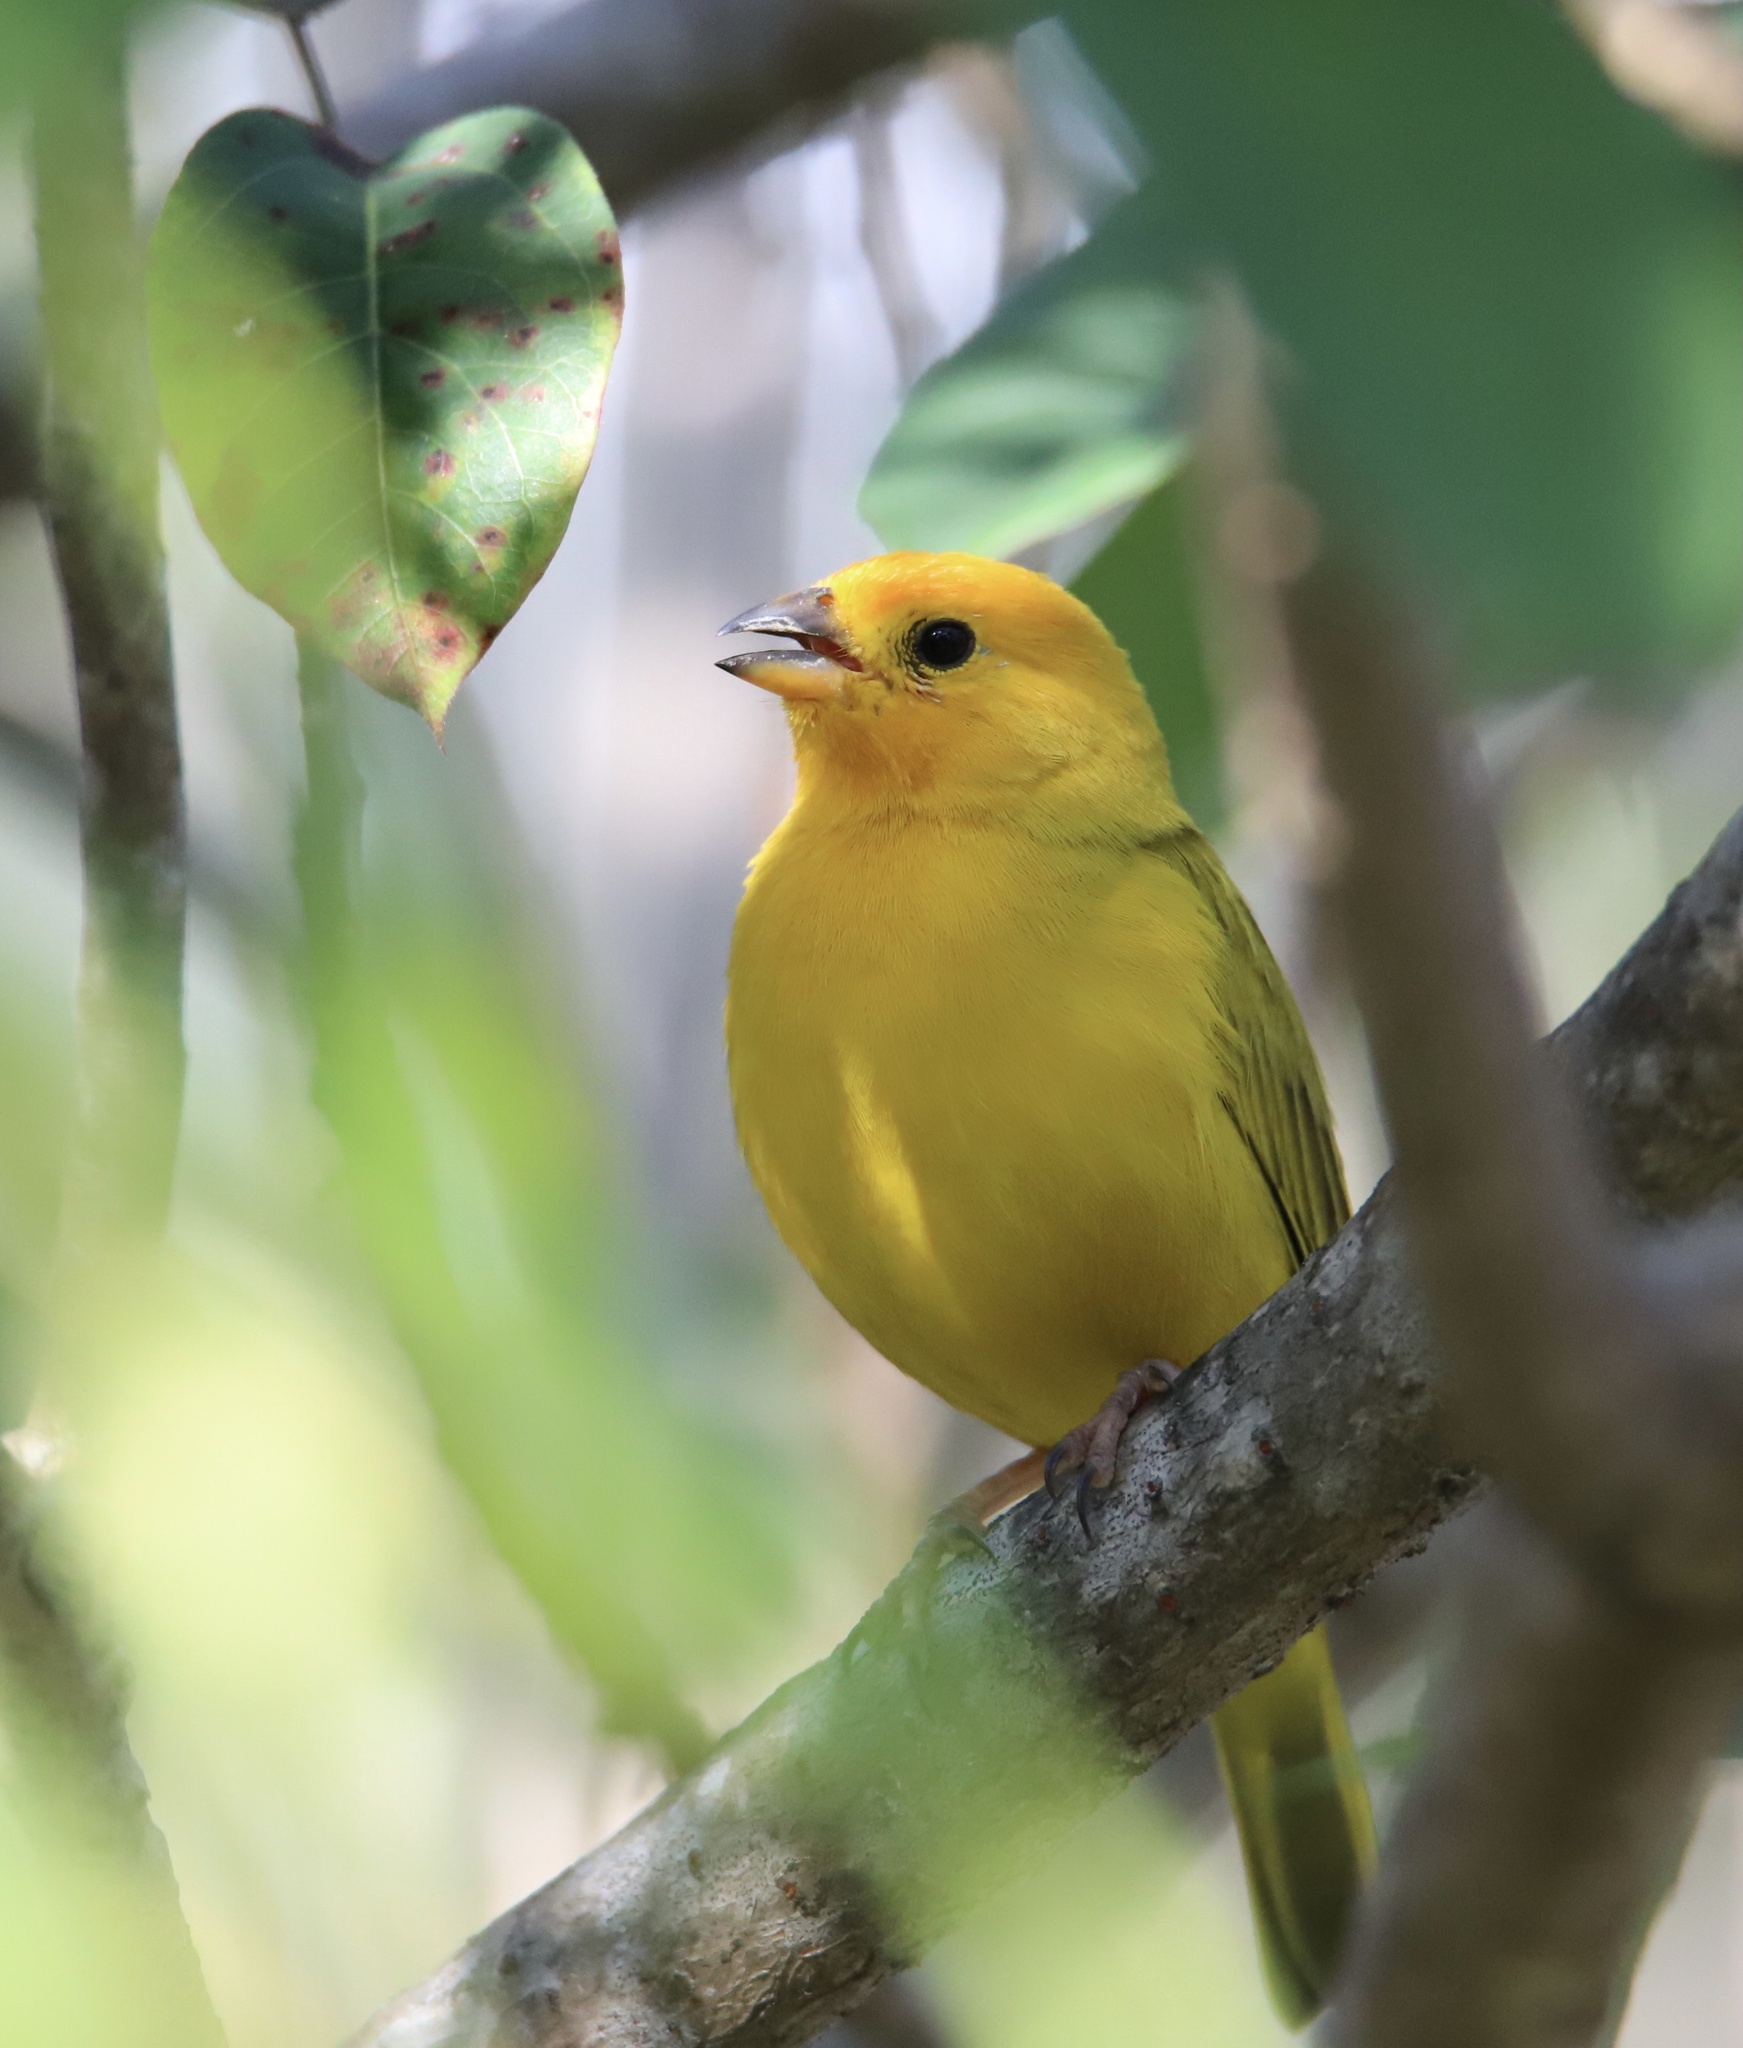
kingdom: Animalia
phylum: Chordata
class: Aves
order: Passeriformes
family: Thraupidae
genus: Sicalis
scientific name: Sicalis flaveola
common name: Saffron finch
